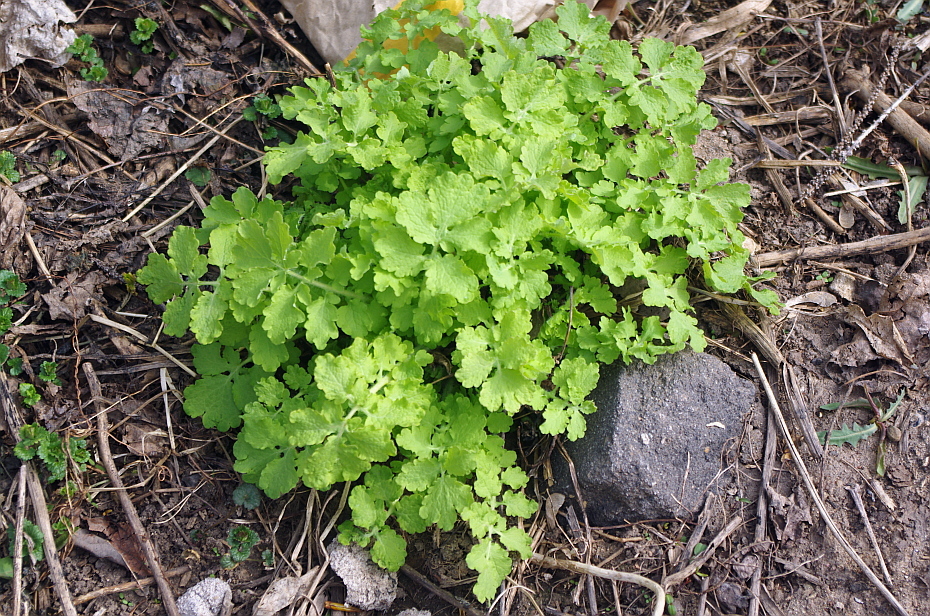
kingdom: Plantae
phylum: Tracheophyta
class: Magnoliopsida
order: Ranunculales
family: Papaveraceae
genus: Chelidonium
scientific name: Chelidonium majus
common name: Greater celandine
